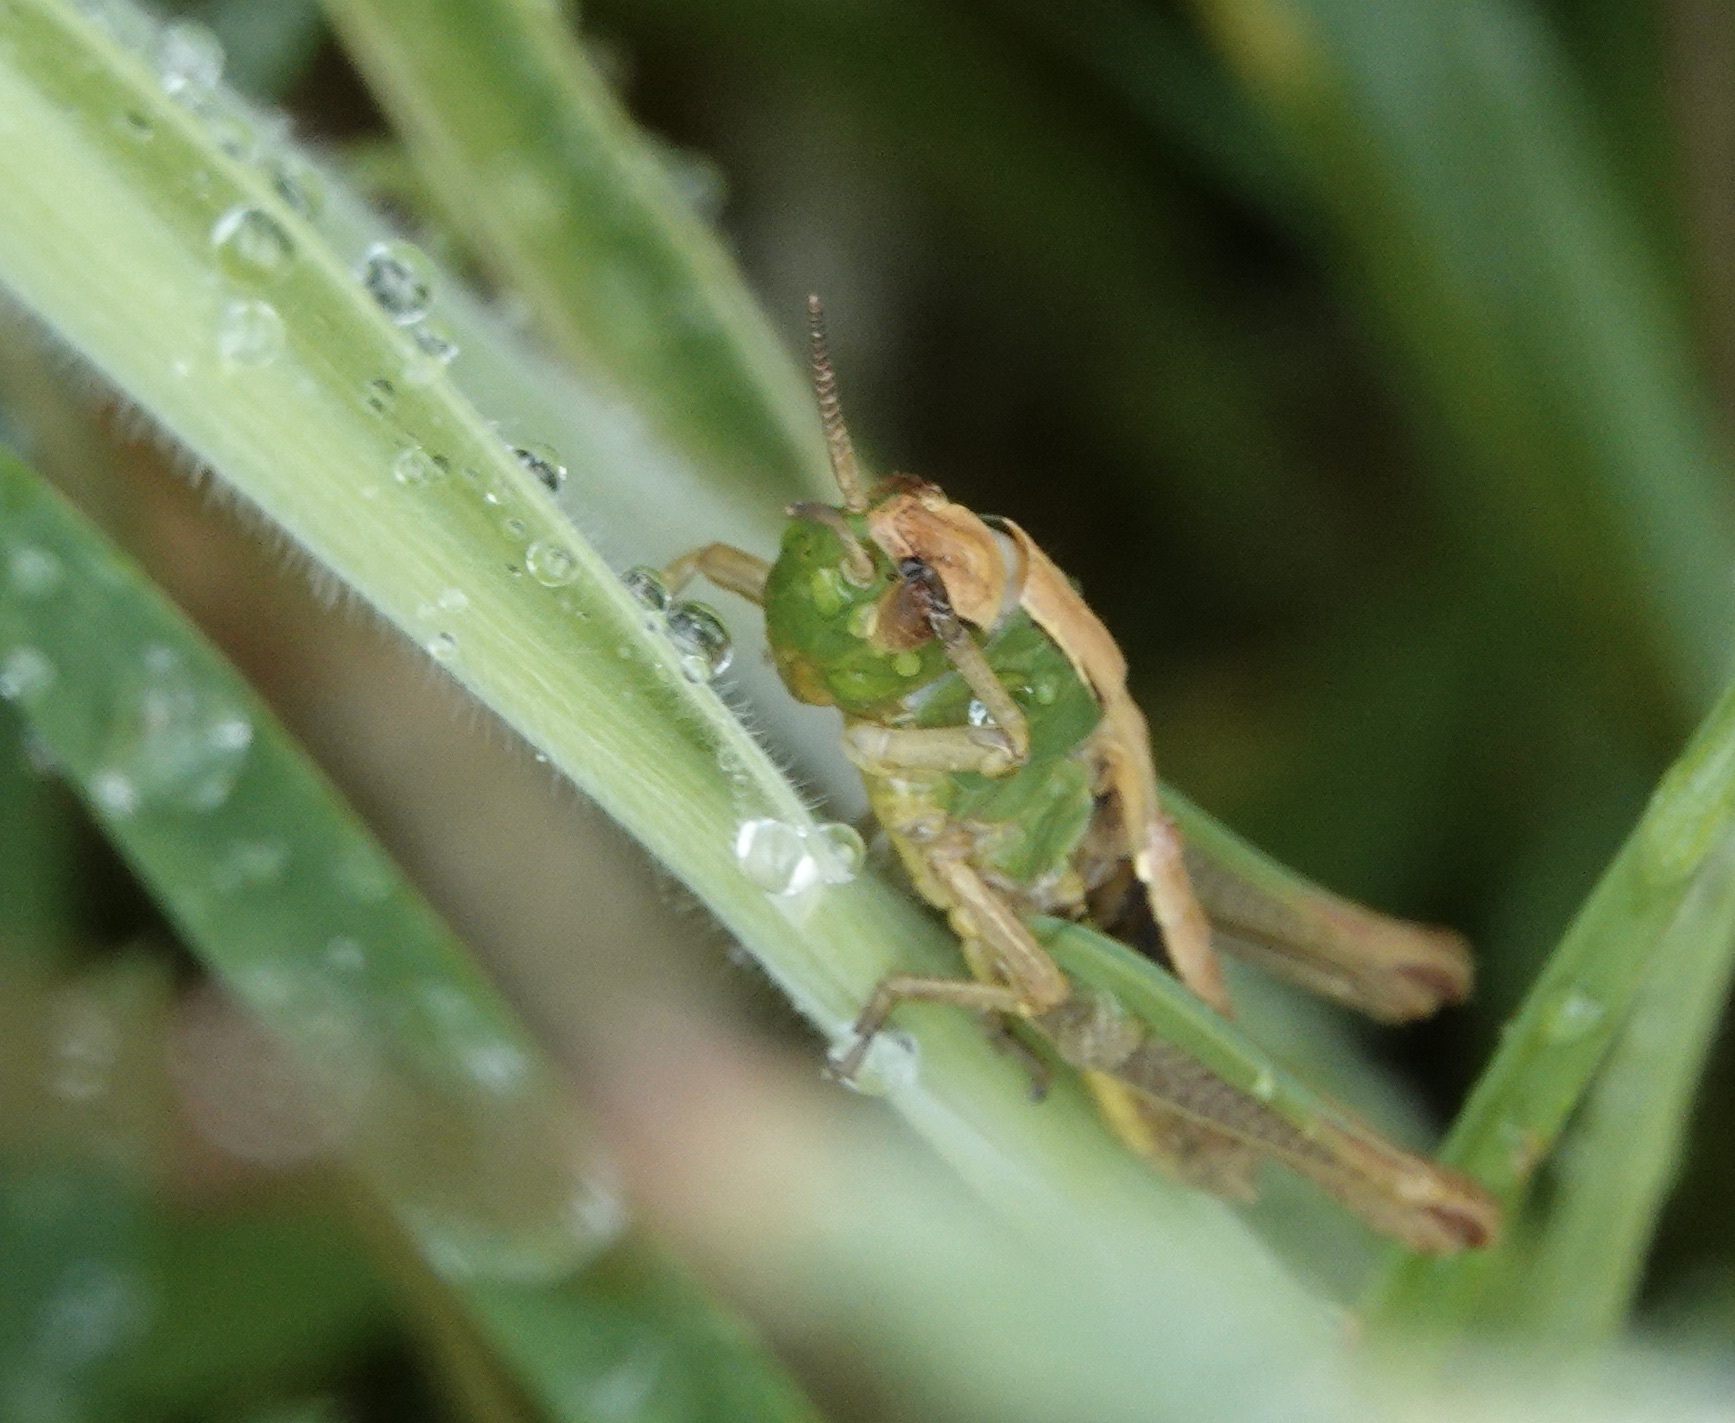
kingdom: Animalia
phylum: Arthropoda
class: Insecta
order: Orthoptera
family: Acrididae
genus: Pseudochorthippus
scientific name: Pseudochorthippus parallelus
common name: Meadow grasshopper
